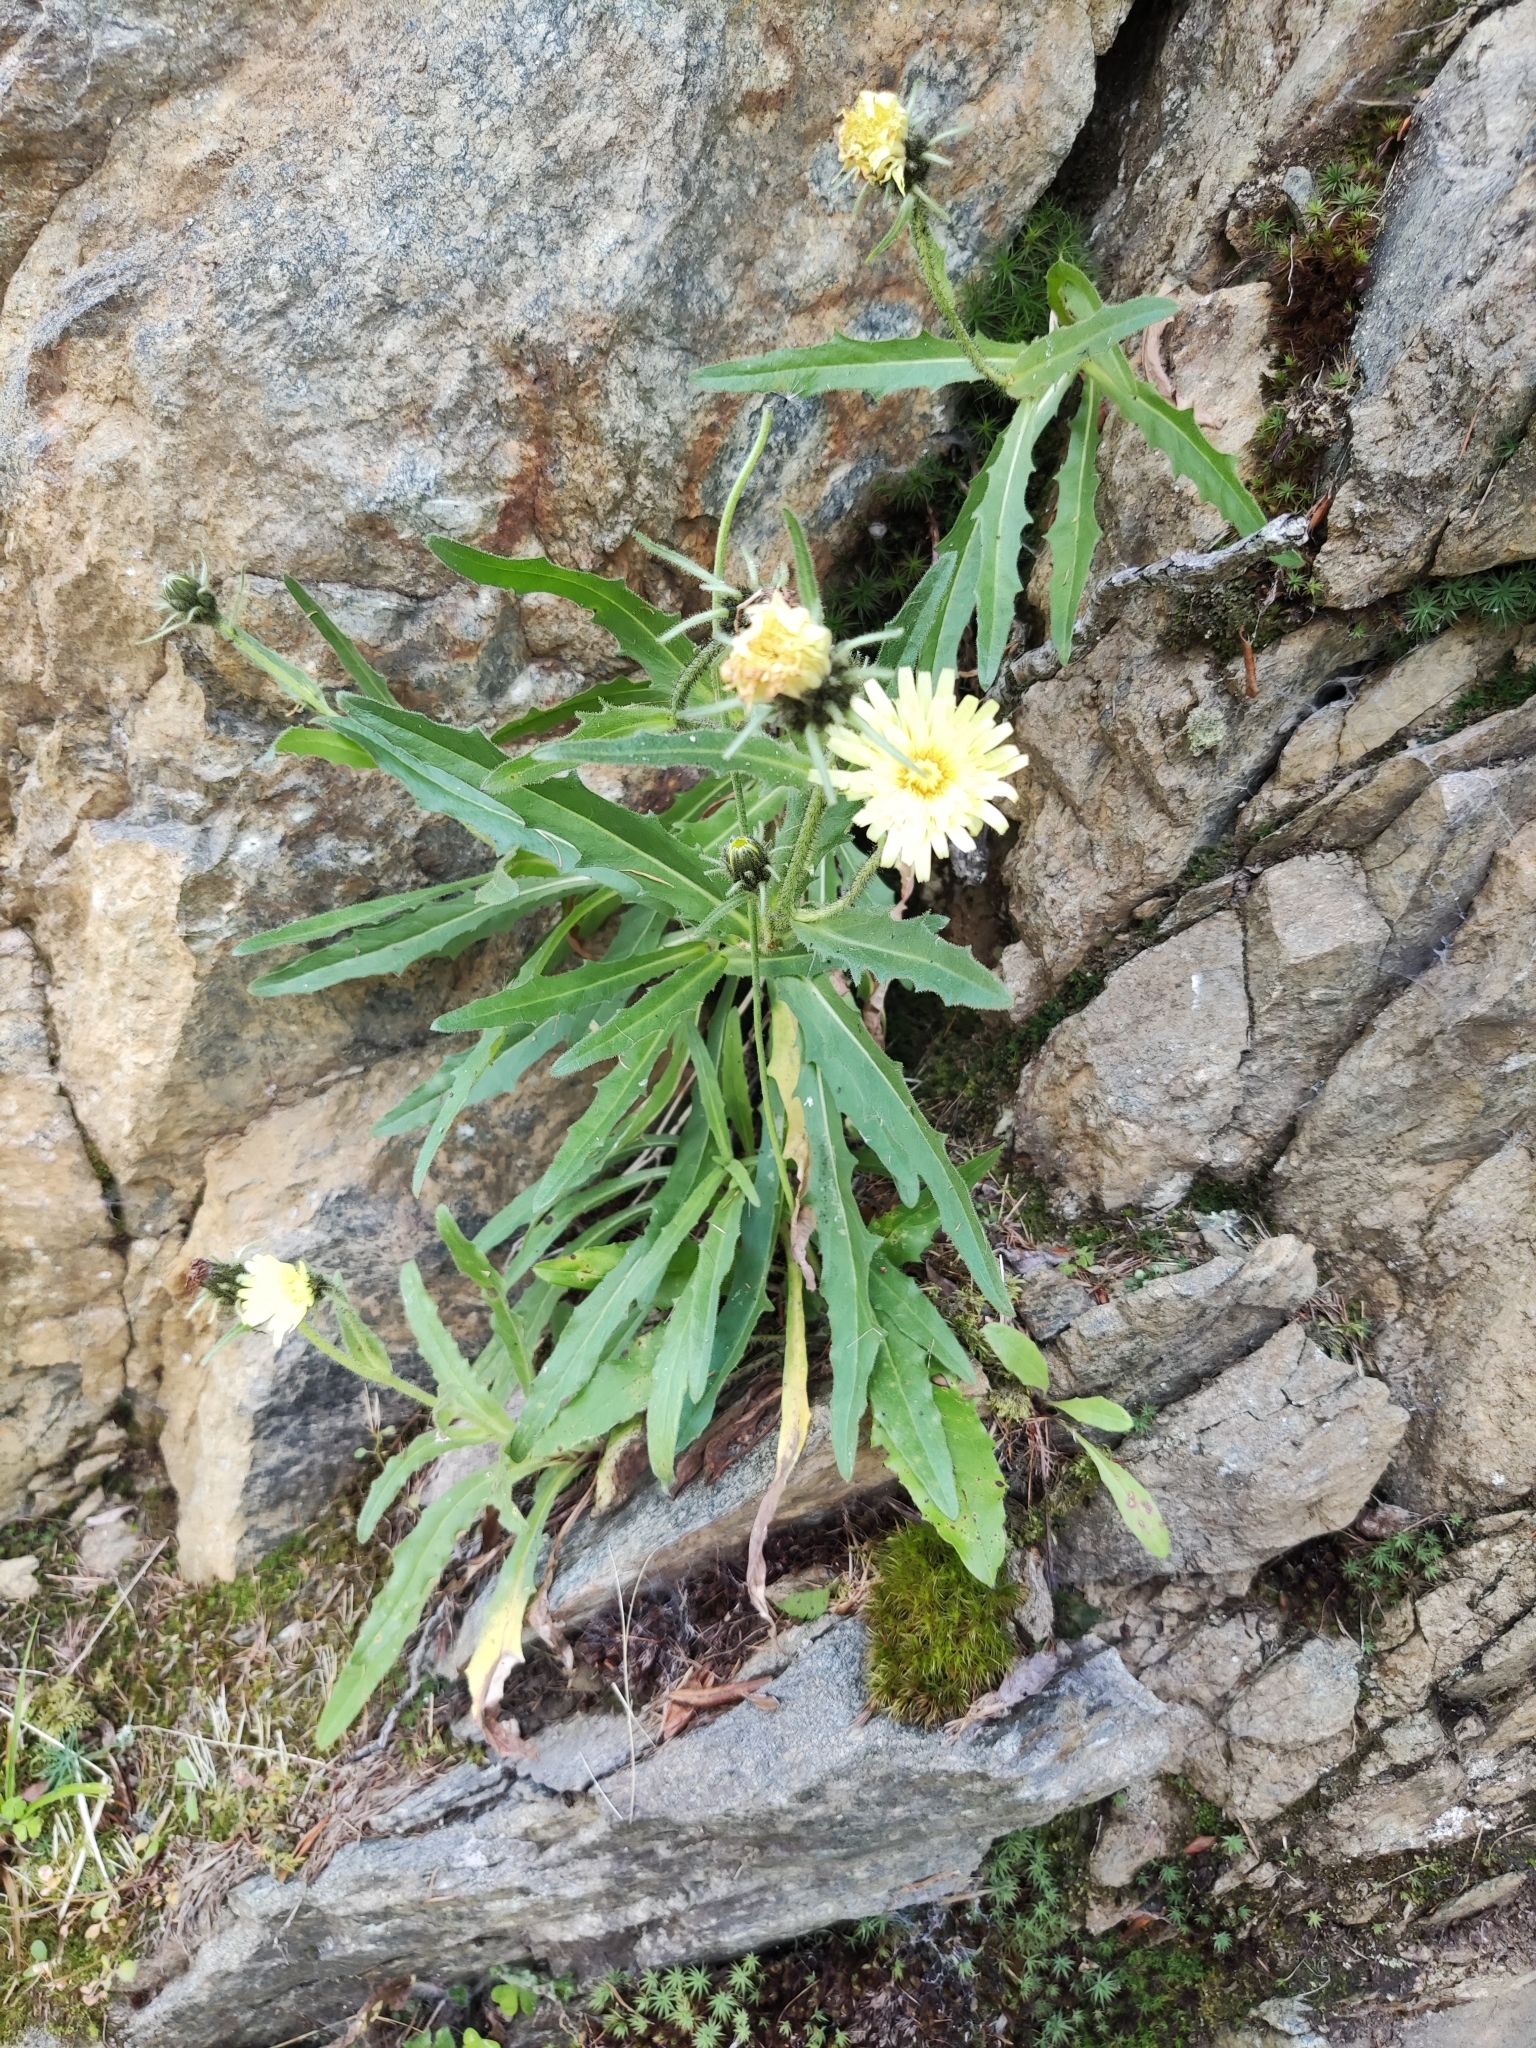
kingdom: Plantae
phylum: Tracheophyta
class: Magnoliopsida
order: Asterales
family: Asteraceae
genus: Schlagintweitia
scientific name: Schlagintweitia intybacea
